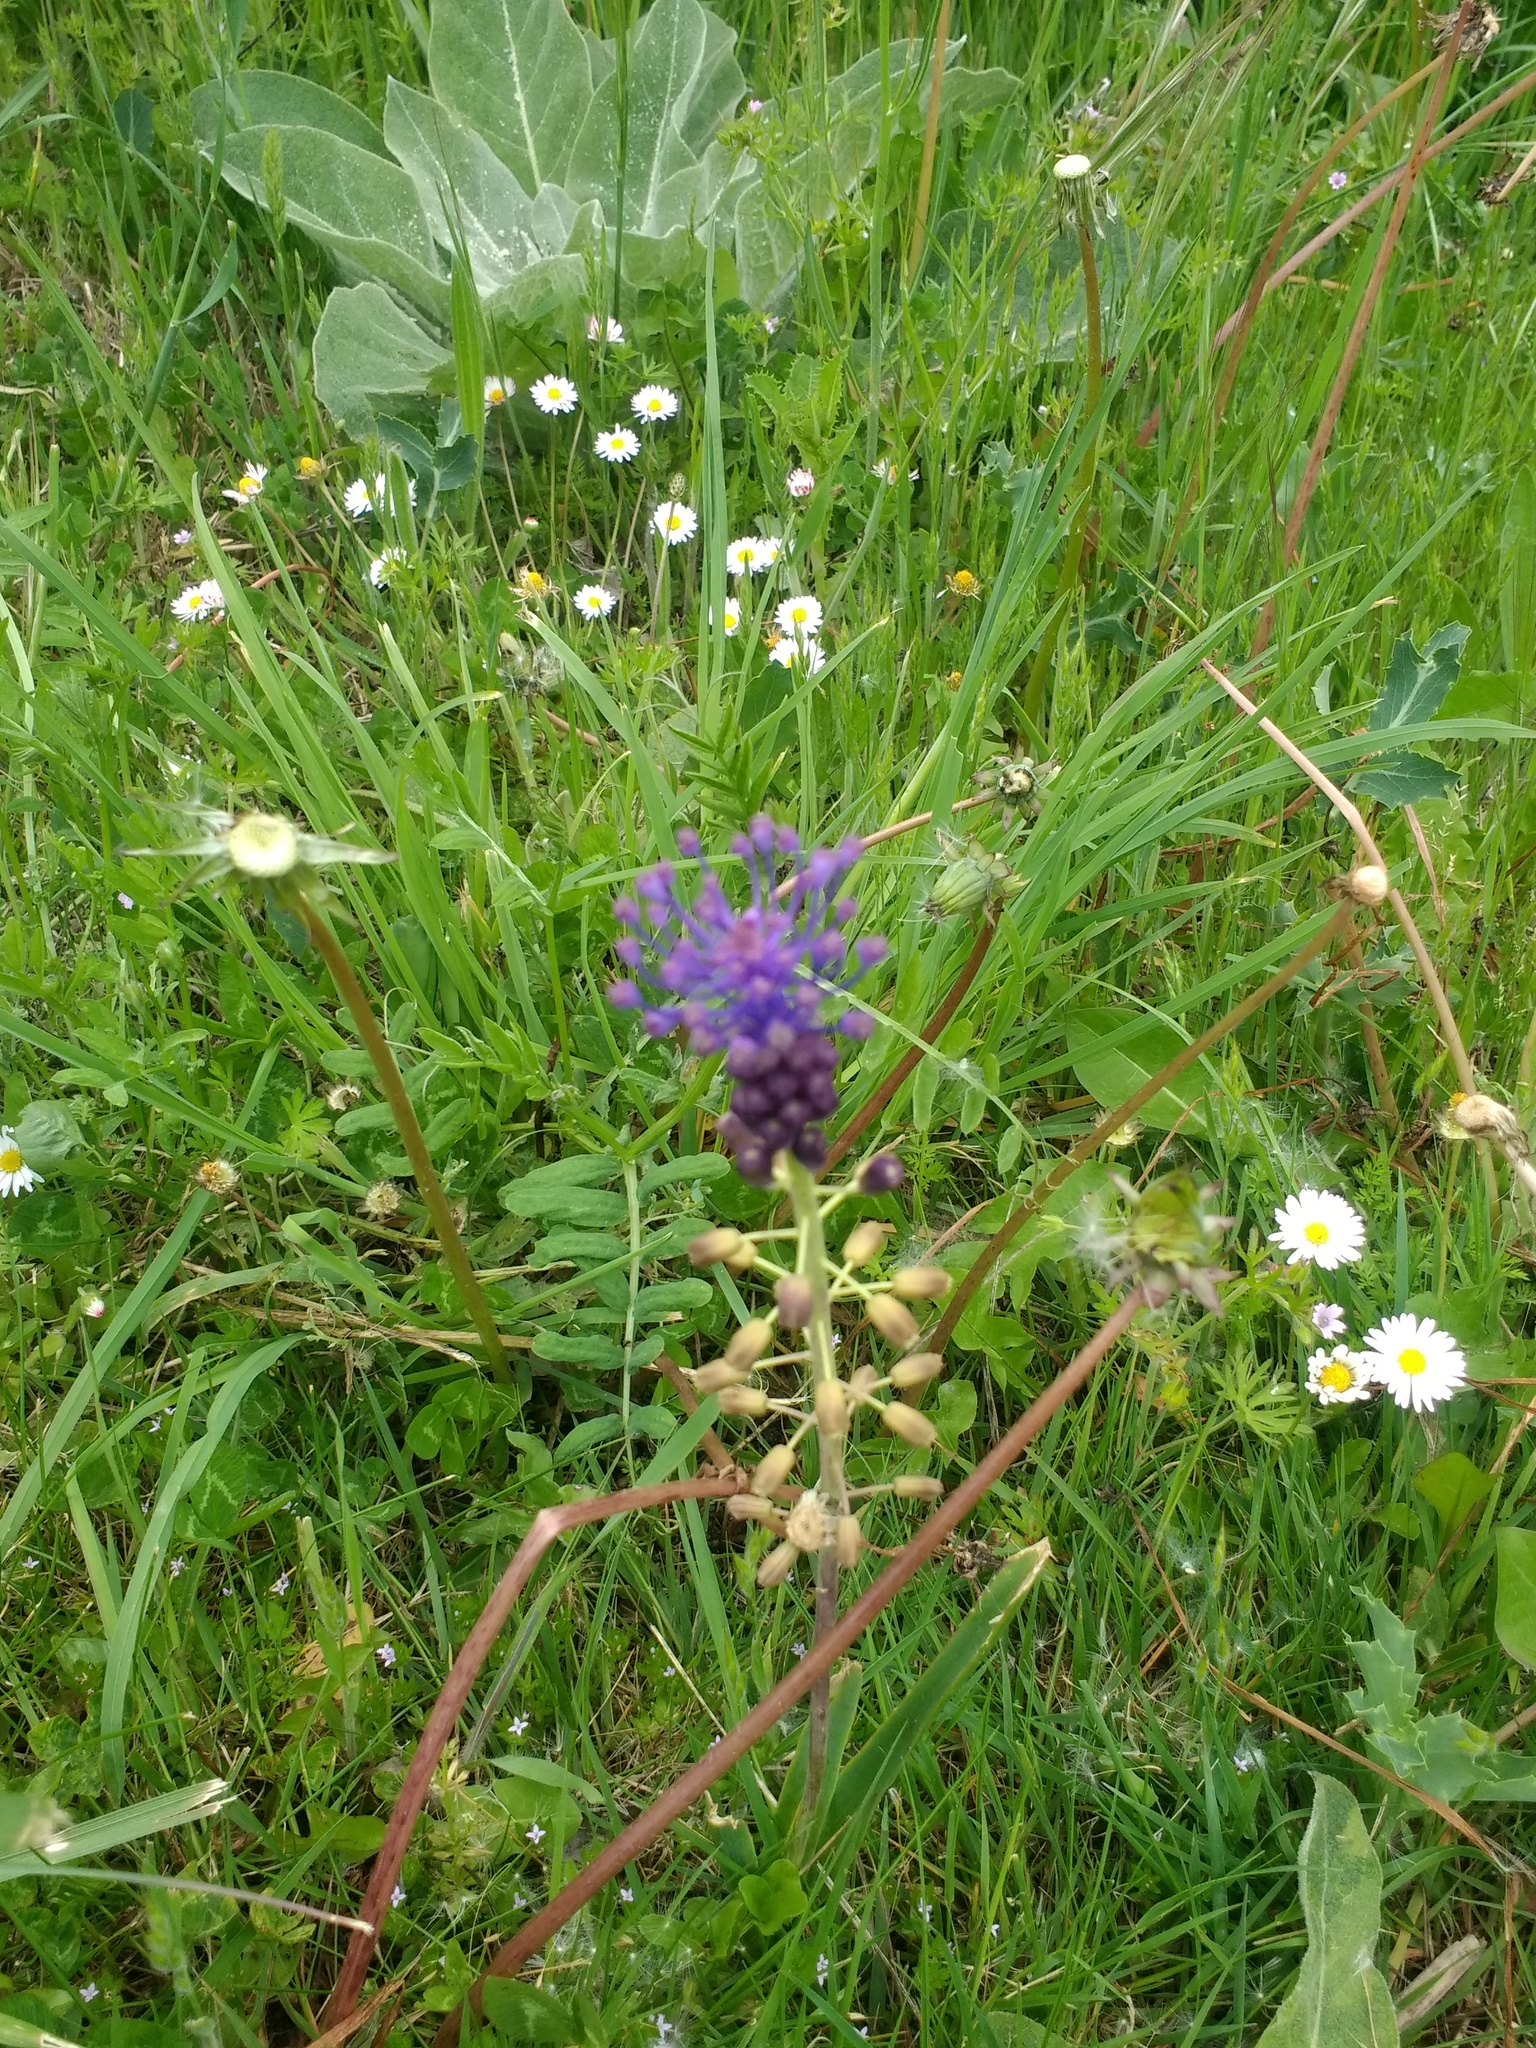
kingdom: Plantae
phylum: Tracheophyta
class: Liliopsida
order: Asparagales
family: Asparagaceae
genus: Muscari
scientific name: Muscari comosum
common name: Tassel hyacinth
